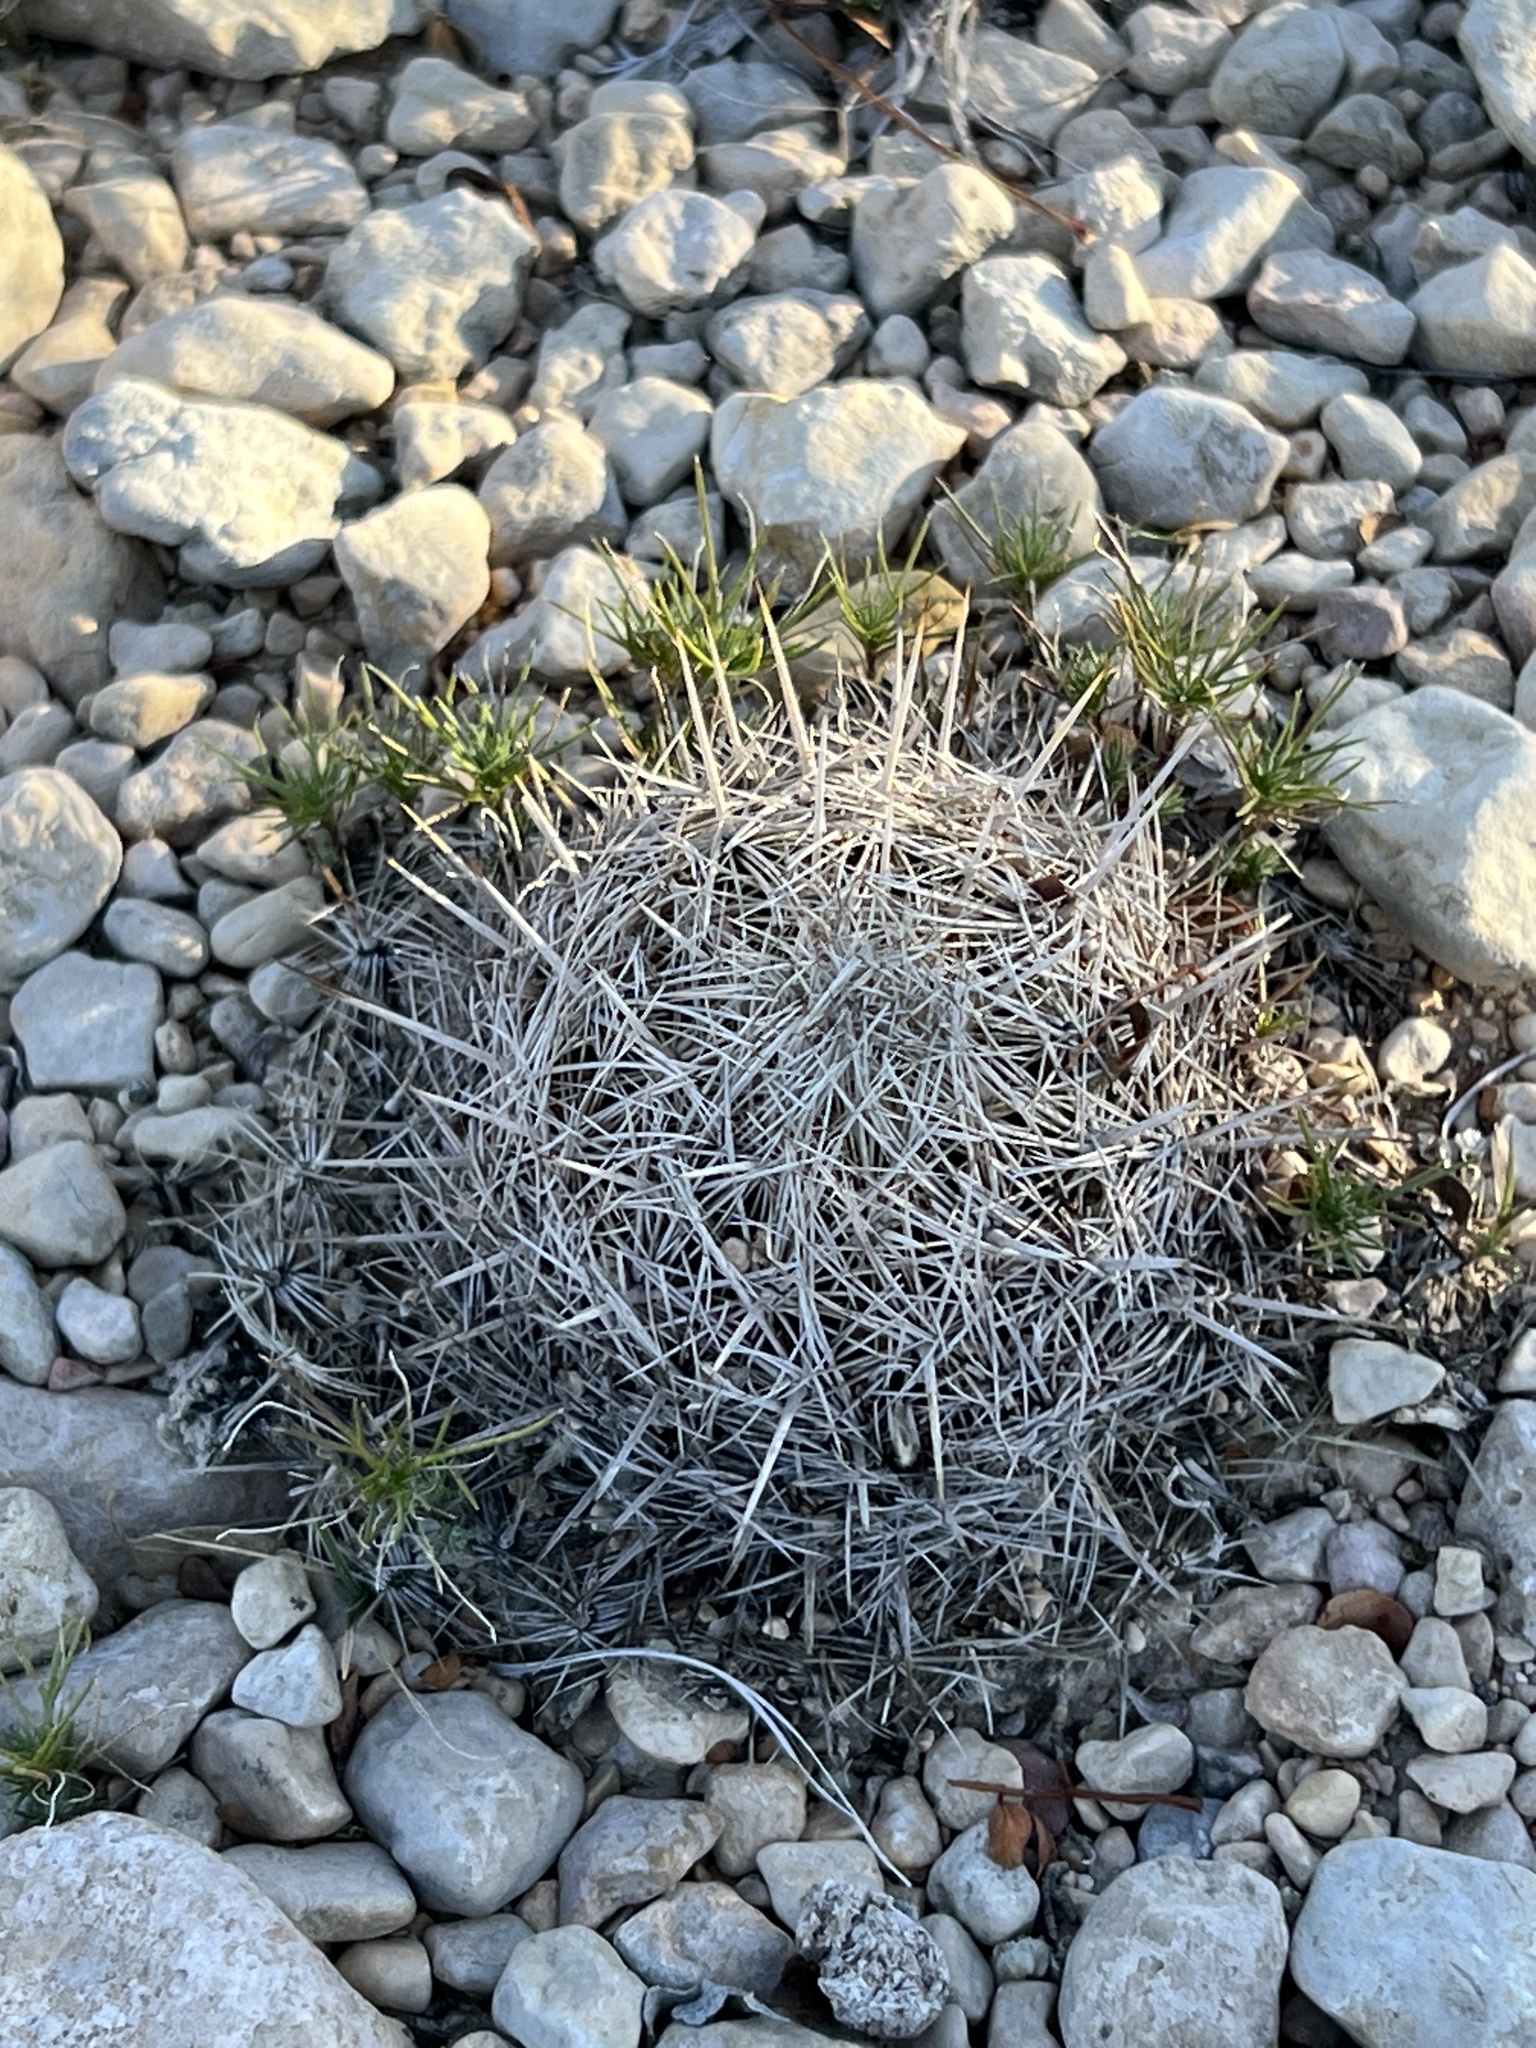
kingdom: Plantae
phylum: Tracheophyta
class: Magnoliopsida
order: Caryophyllales
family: Cactaceae
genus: Coryphantha
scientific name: Coryphantha echinus
